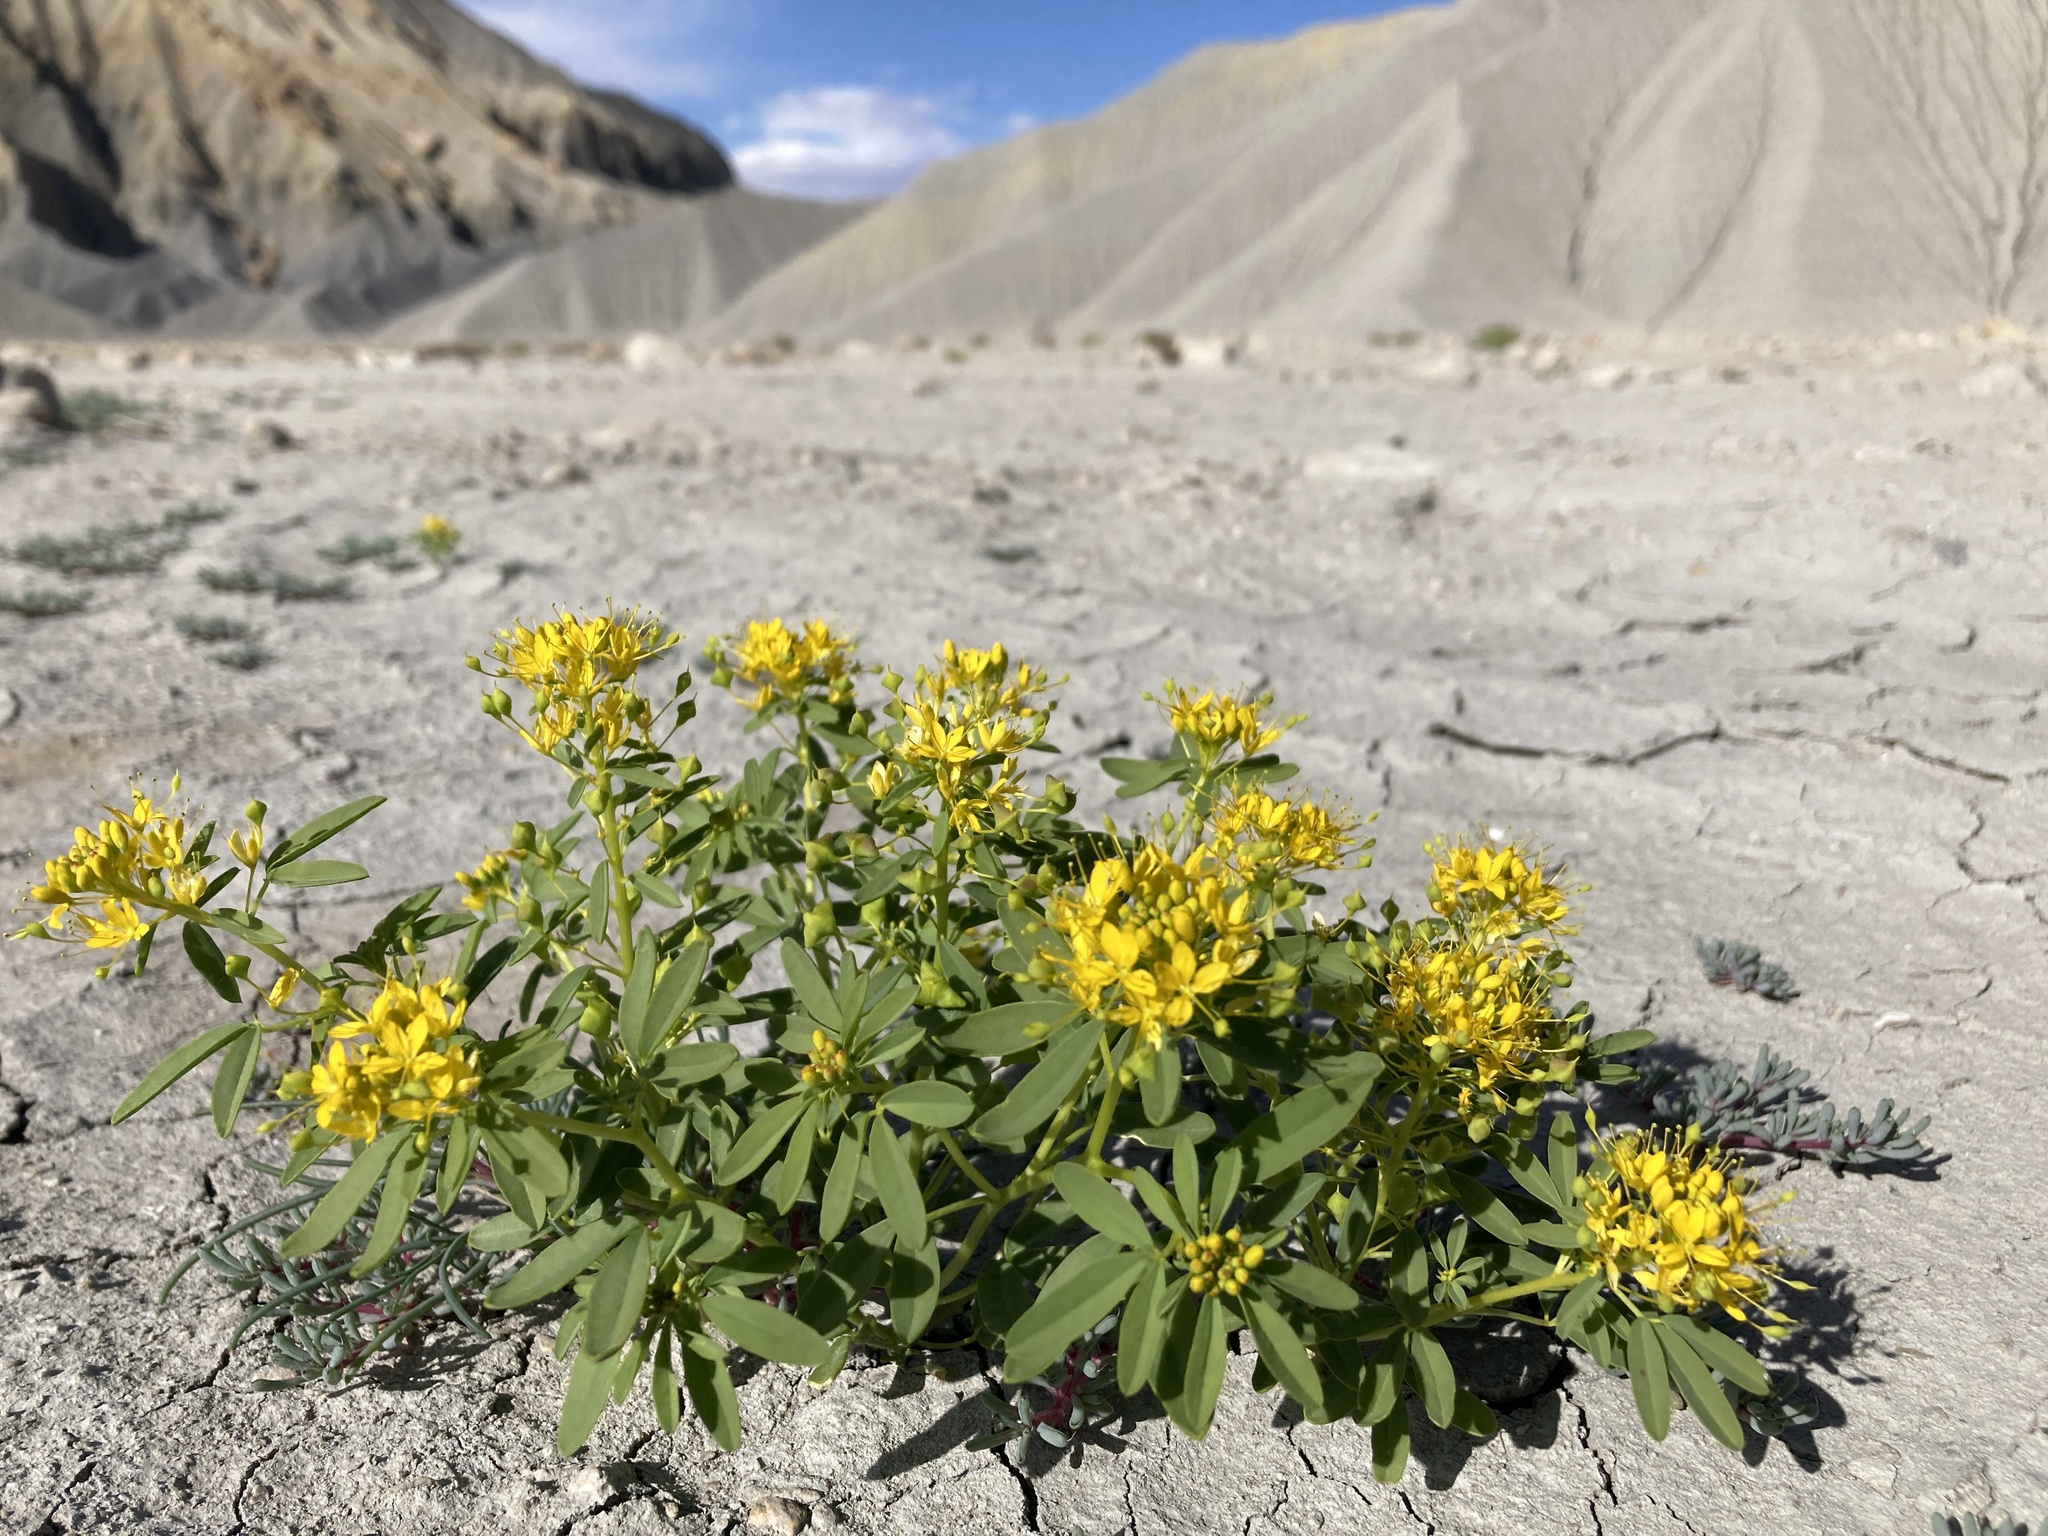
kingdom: Plantae
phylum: Tracheophyta
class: Magnoliopsida
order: Brassicales
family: Cleomaceae
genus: Cleomella
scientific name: Cleomella lutea
